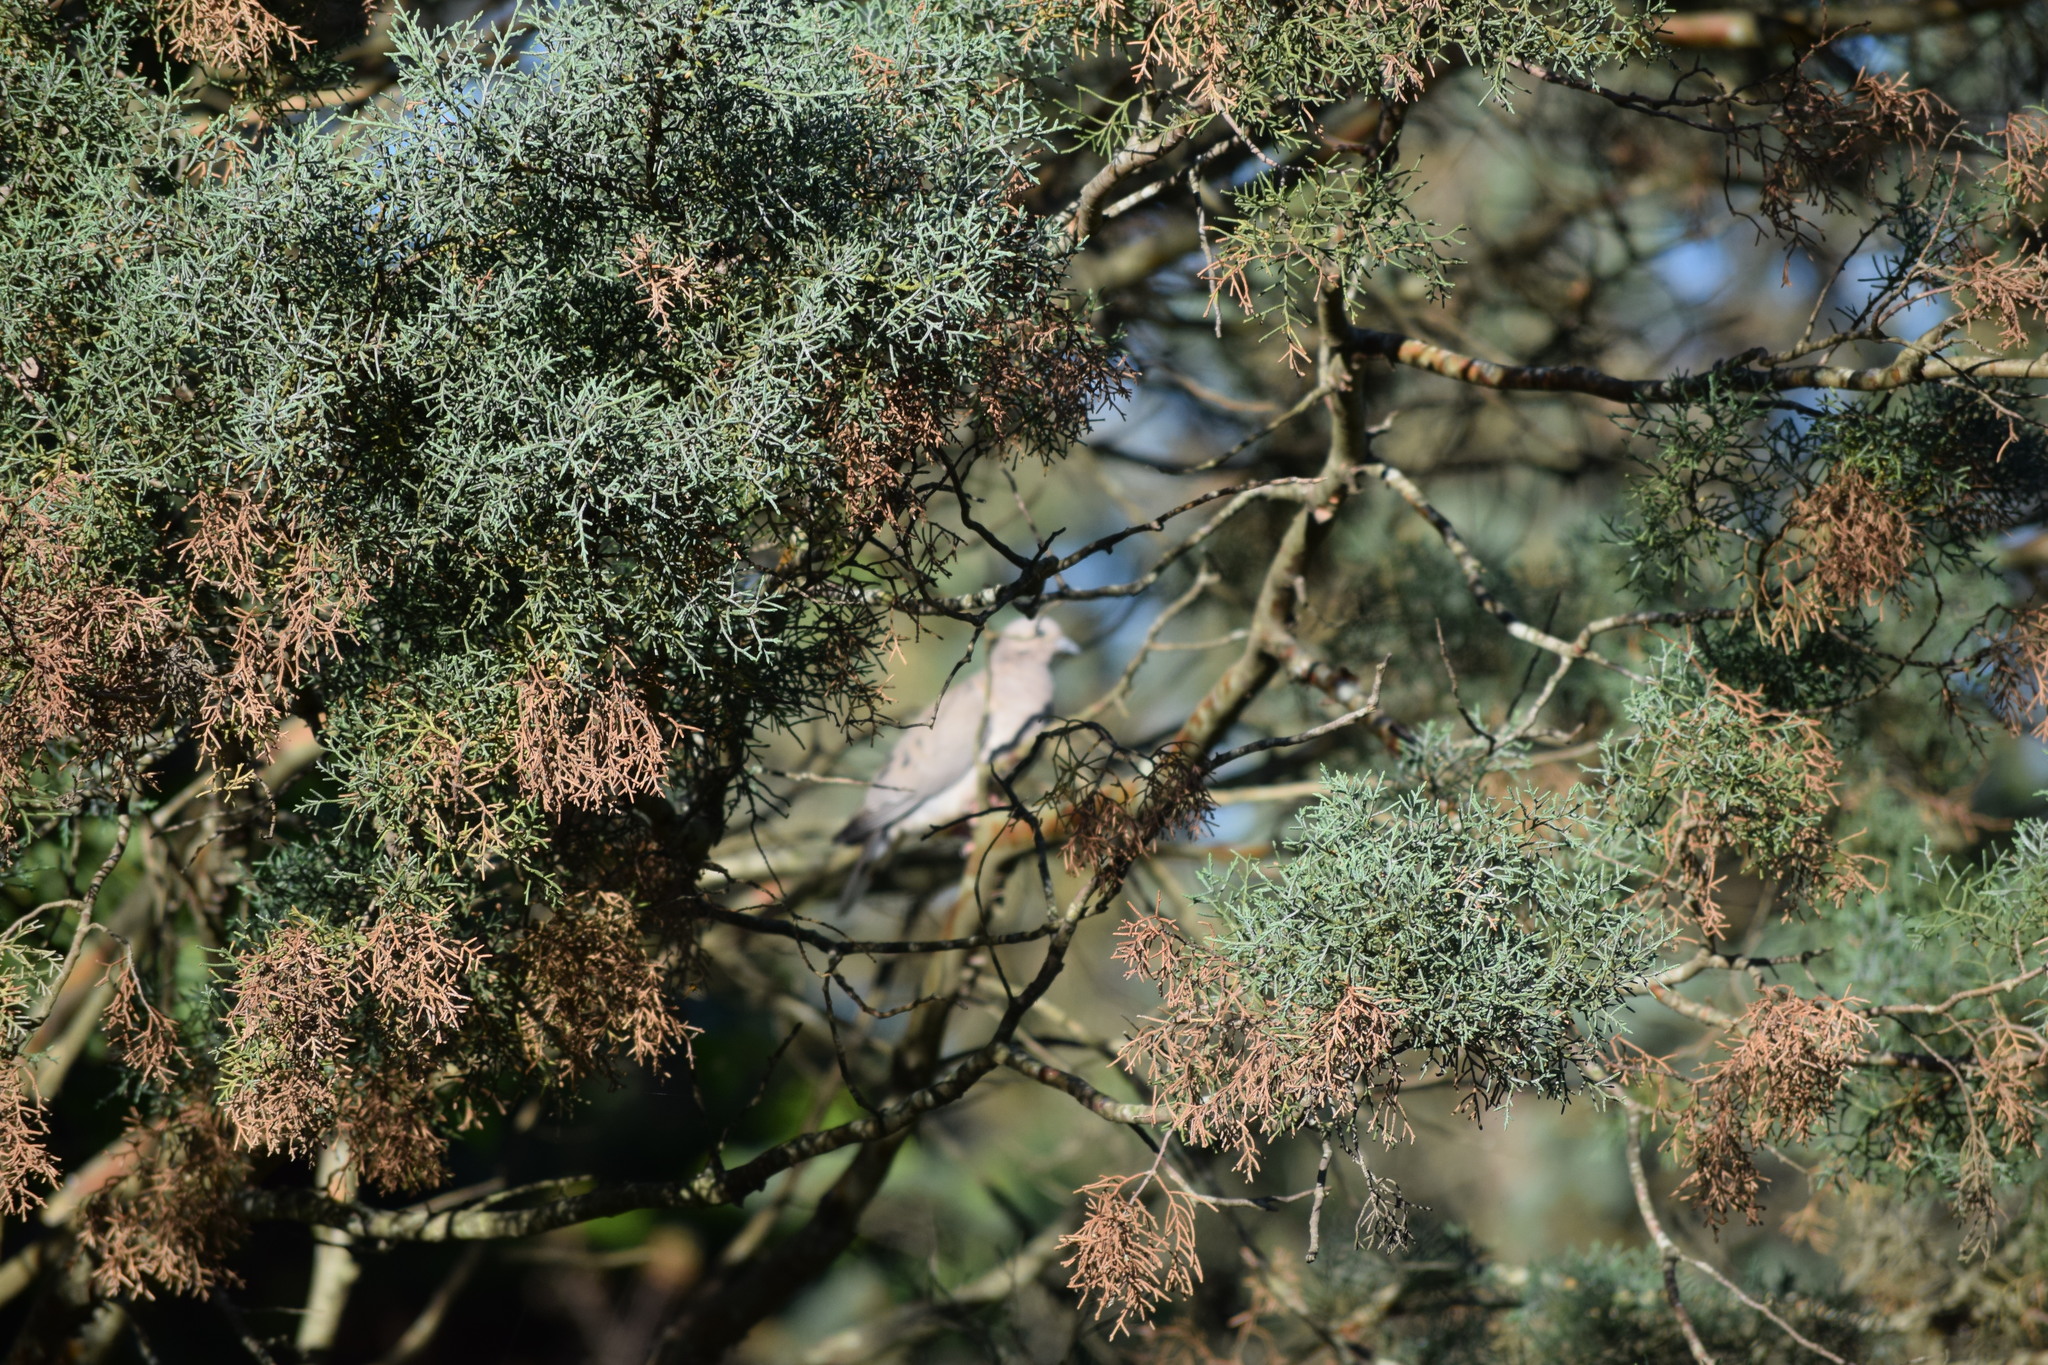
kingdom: Animalia
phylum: Chordata
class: Aves
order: Columbiformes
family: Columbidae
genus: Zenaida
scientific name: Zenaida auriculata
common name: Eared dove
